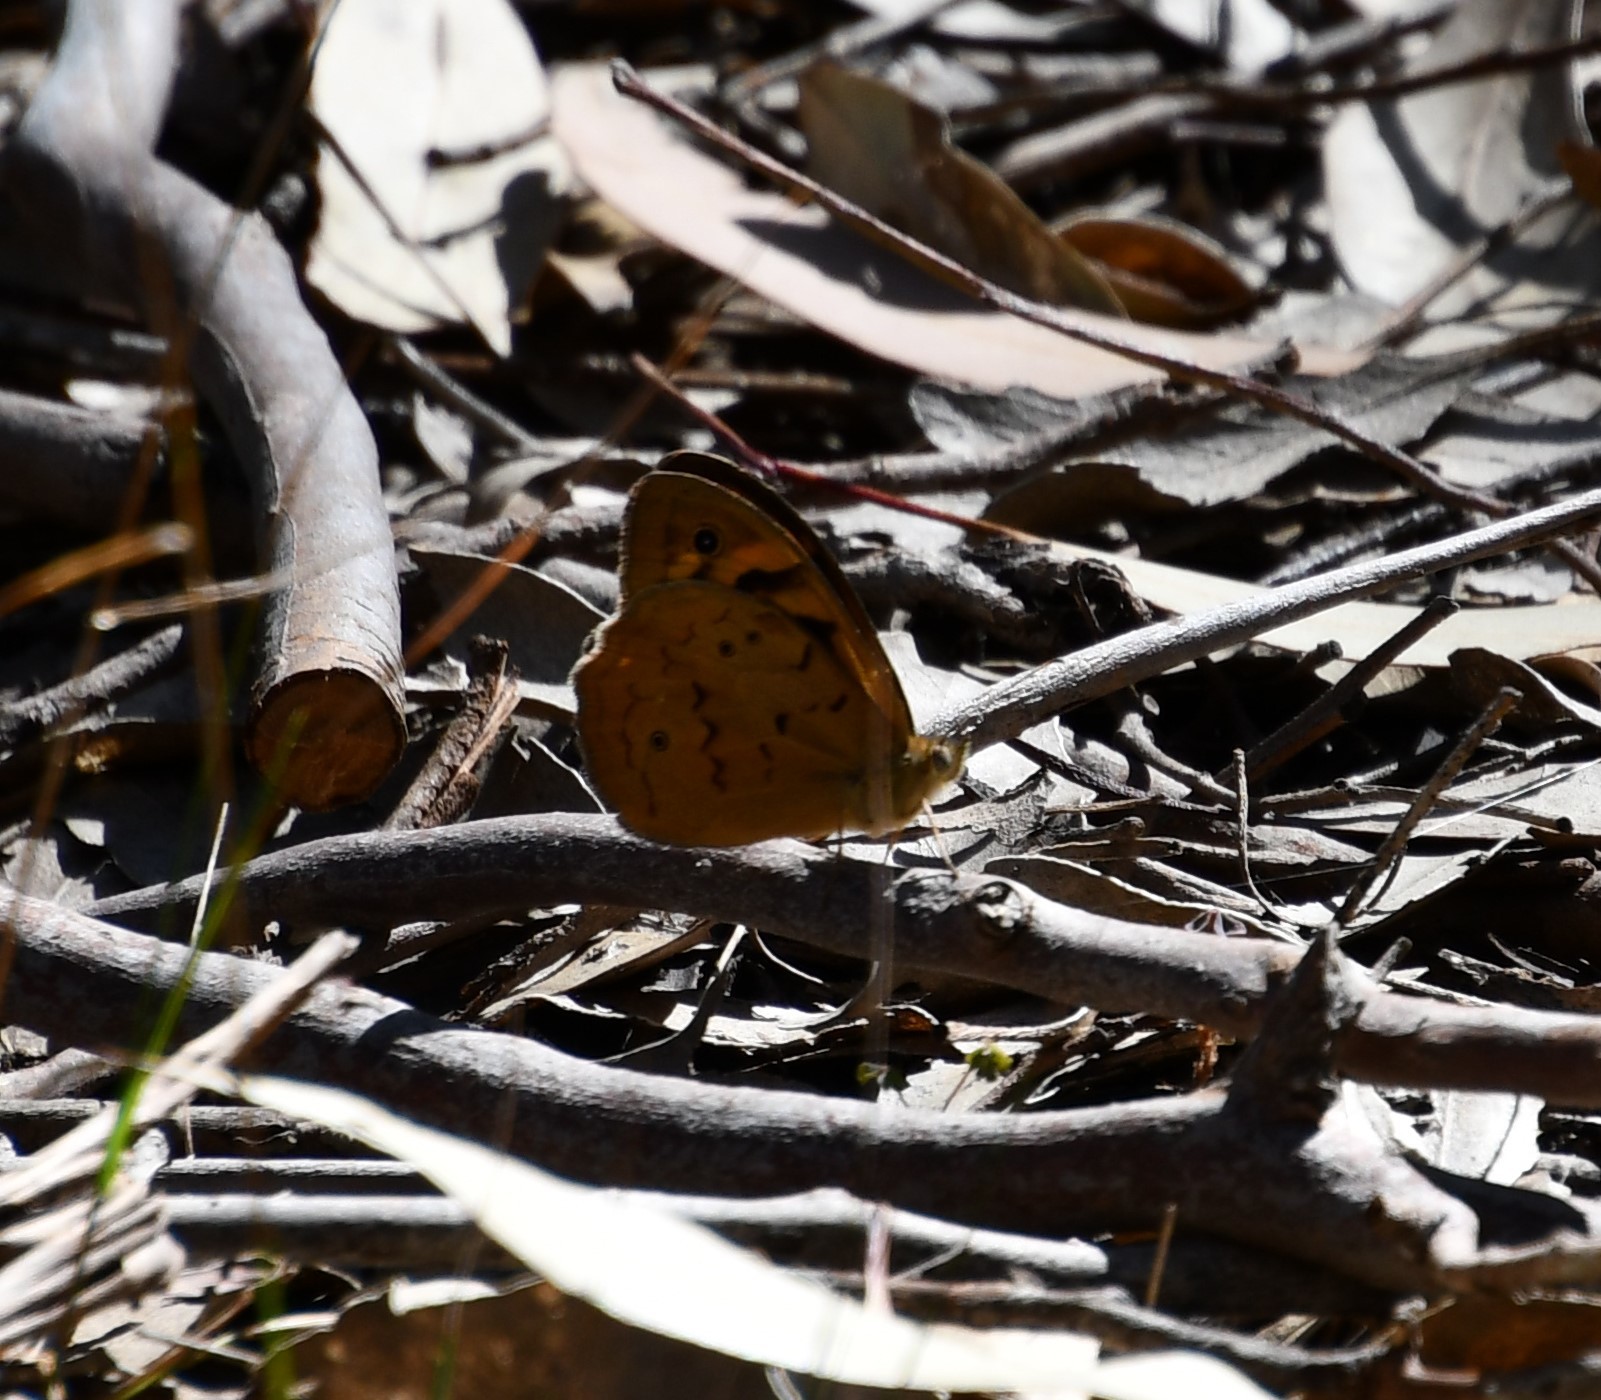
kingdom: Animalia
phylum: Arthropoda
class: Insecta
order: Lepidoptera
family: Nymphalidae
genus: Heteronympha
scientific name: Heteronympha merope
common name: Common brown
